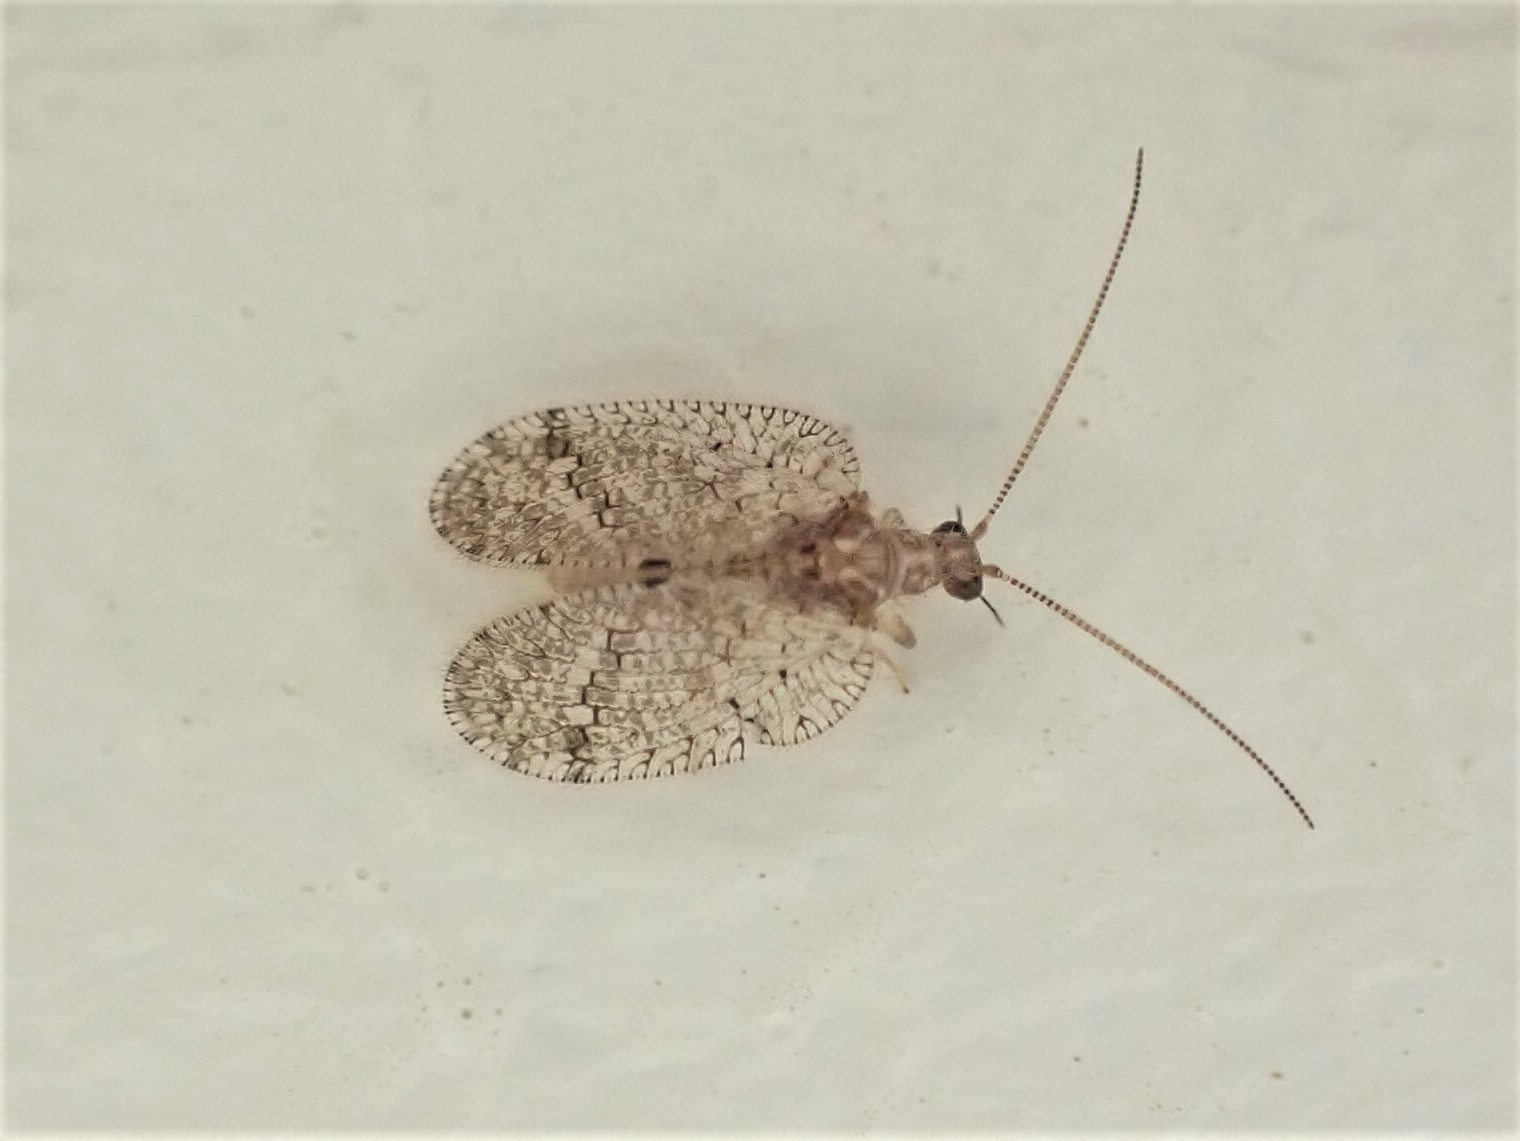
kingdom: Animalia
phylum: Arthropoda
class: Insecta
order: Neuroptera
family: Hemerobiidae
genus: Psectra
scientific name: Psectra nakaharai
